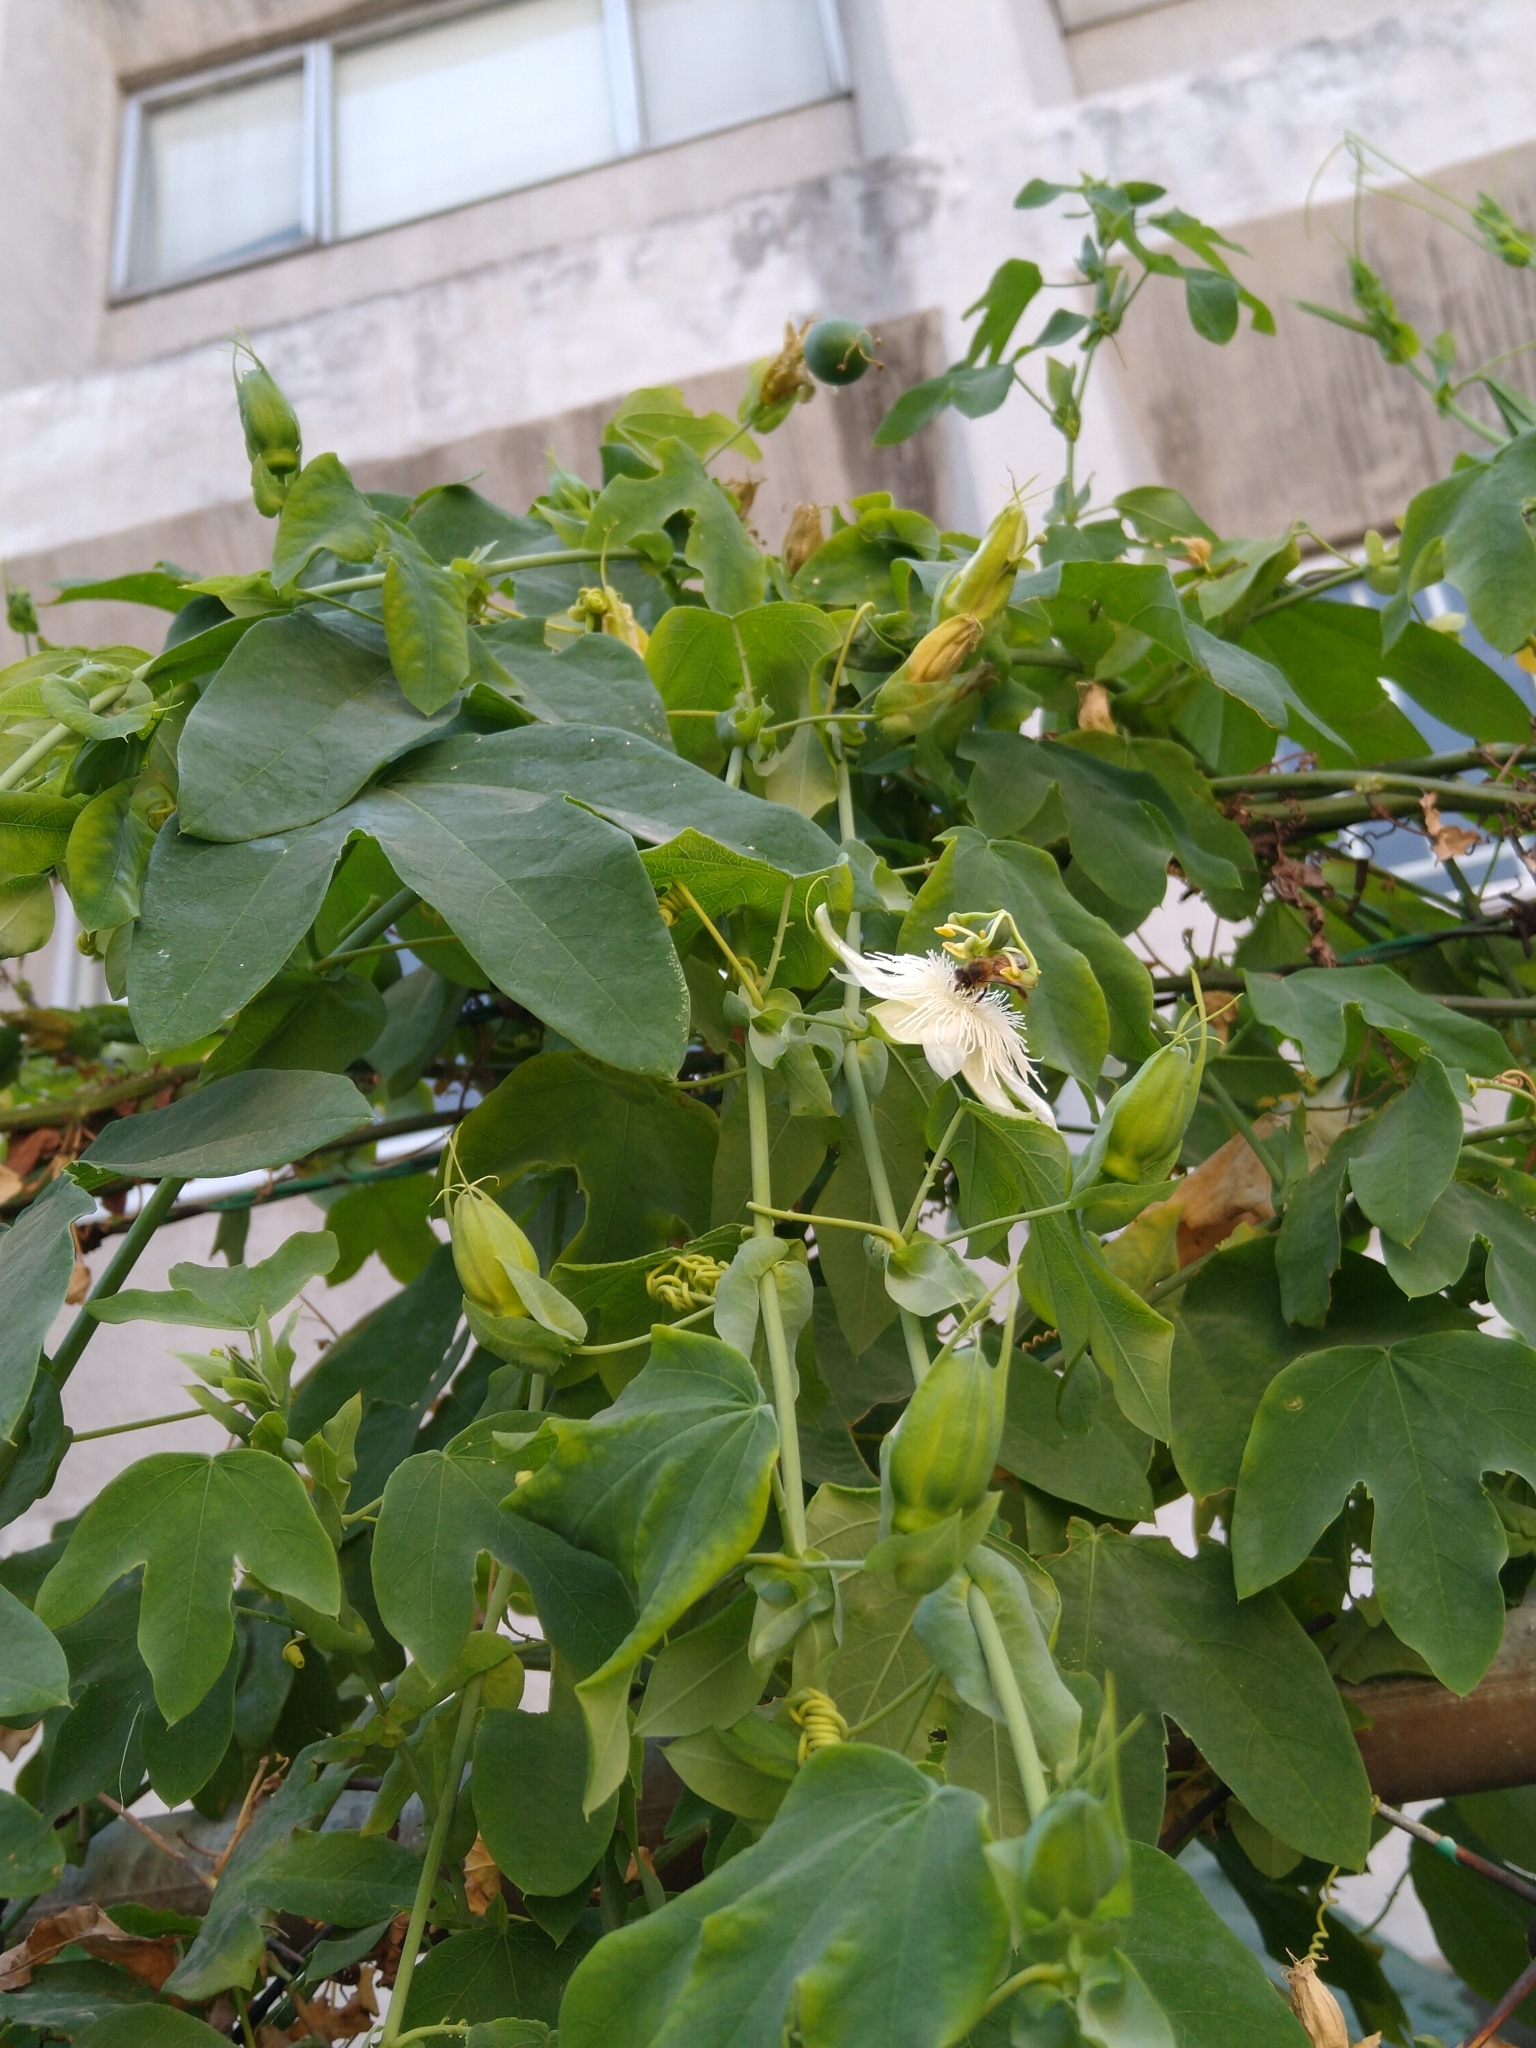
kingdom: Plantae
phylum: Tracheophyta
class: Magnoliopsida
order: Malpighiales
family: Passifloraceae
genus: Passiflora
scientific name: Passiflora subpeltata
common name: White passionflower
